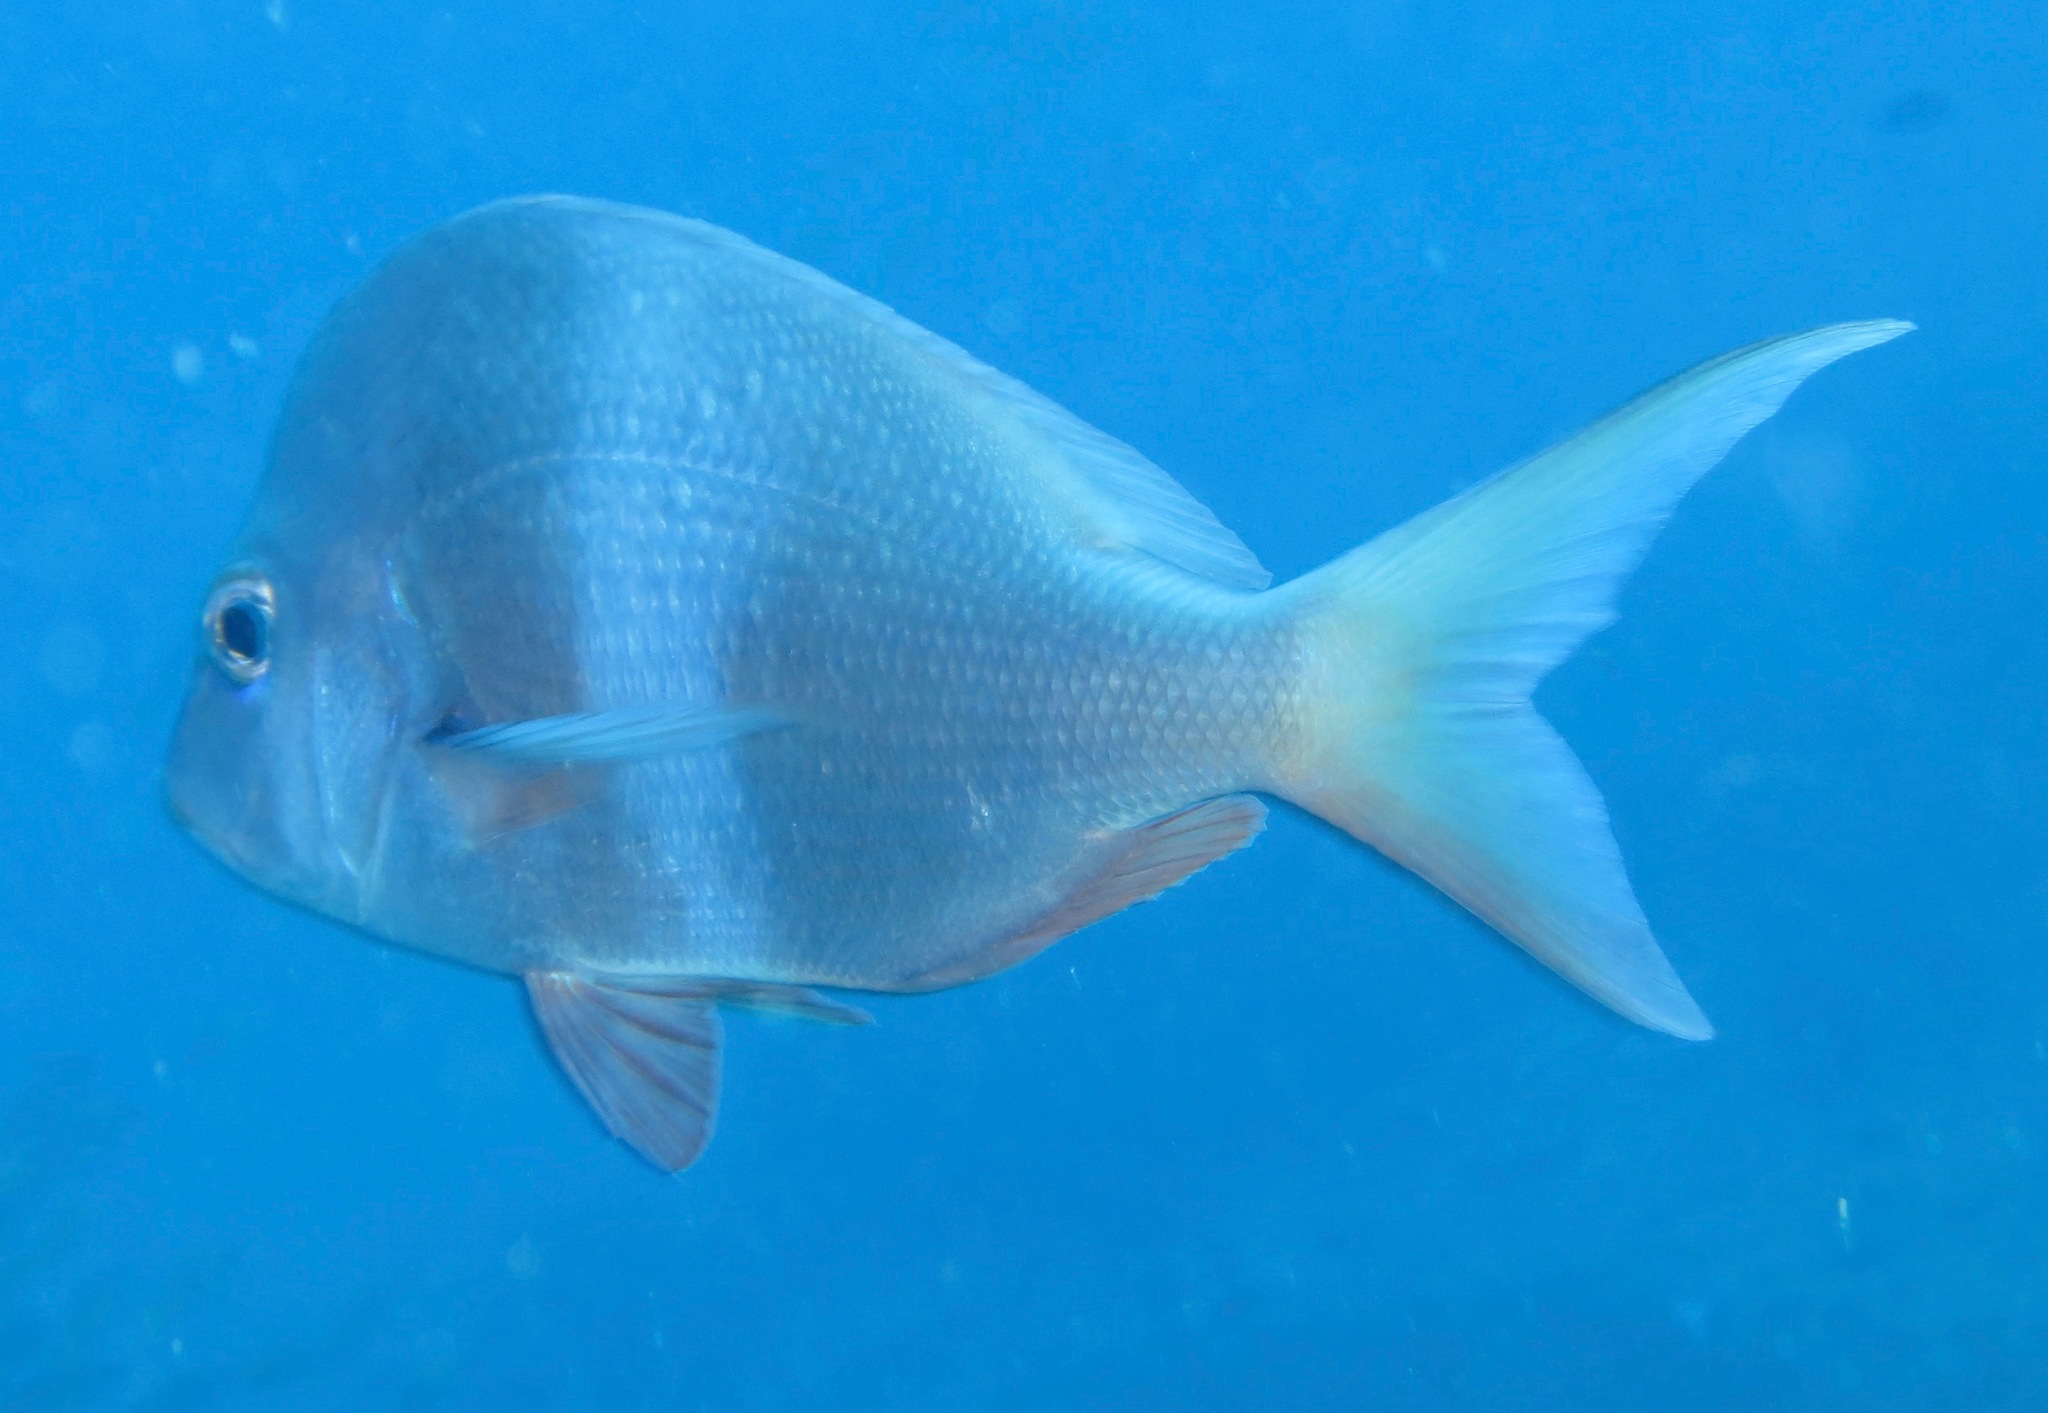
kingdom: Animalia
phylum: Chordata
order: Perciformes
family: Sparidae
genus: Chrysoblephus
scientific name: Chrysoblephus puniceus
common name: Slinger seabream
